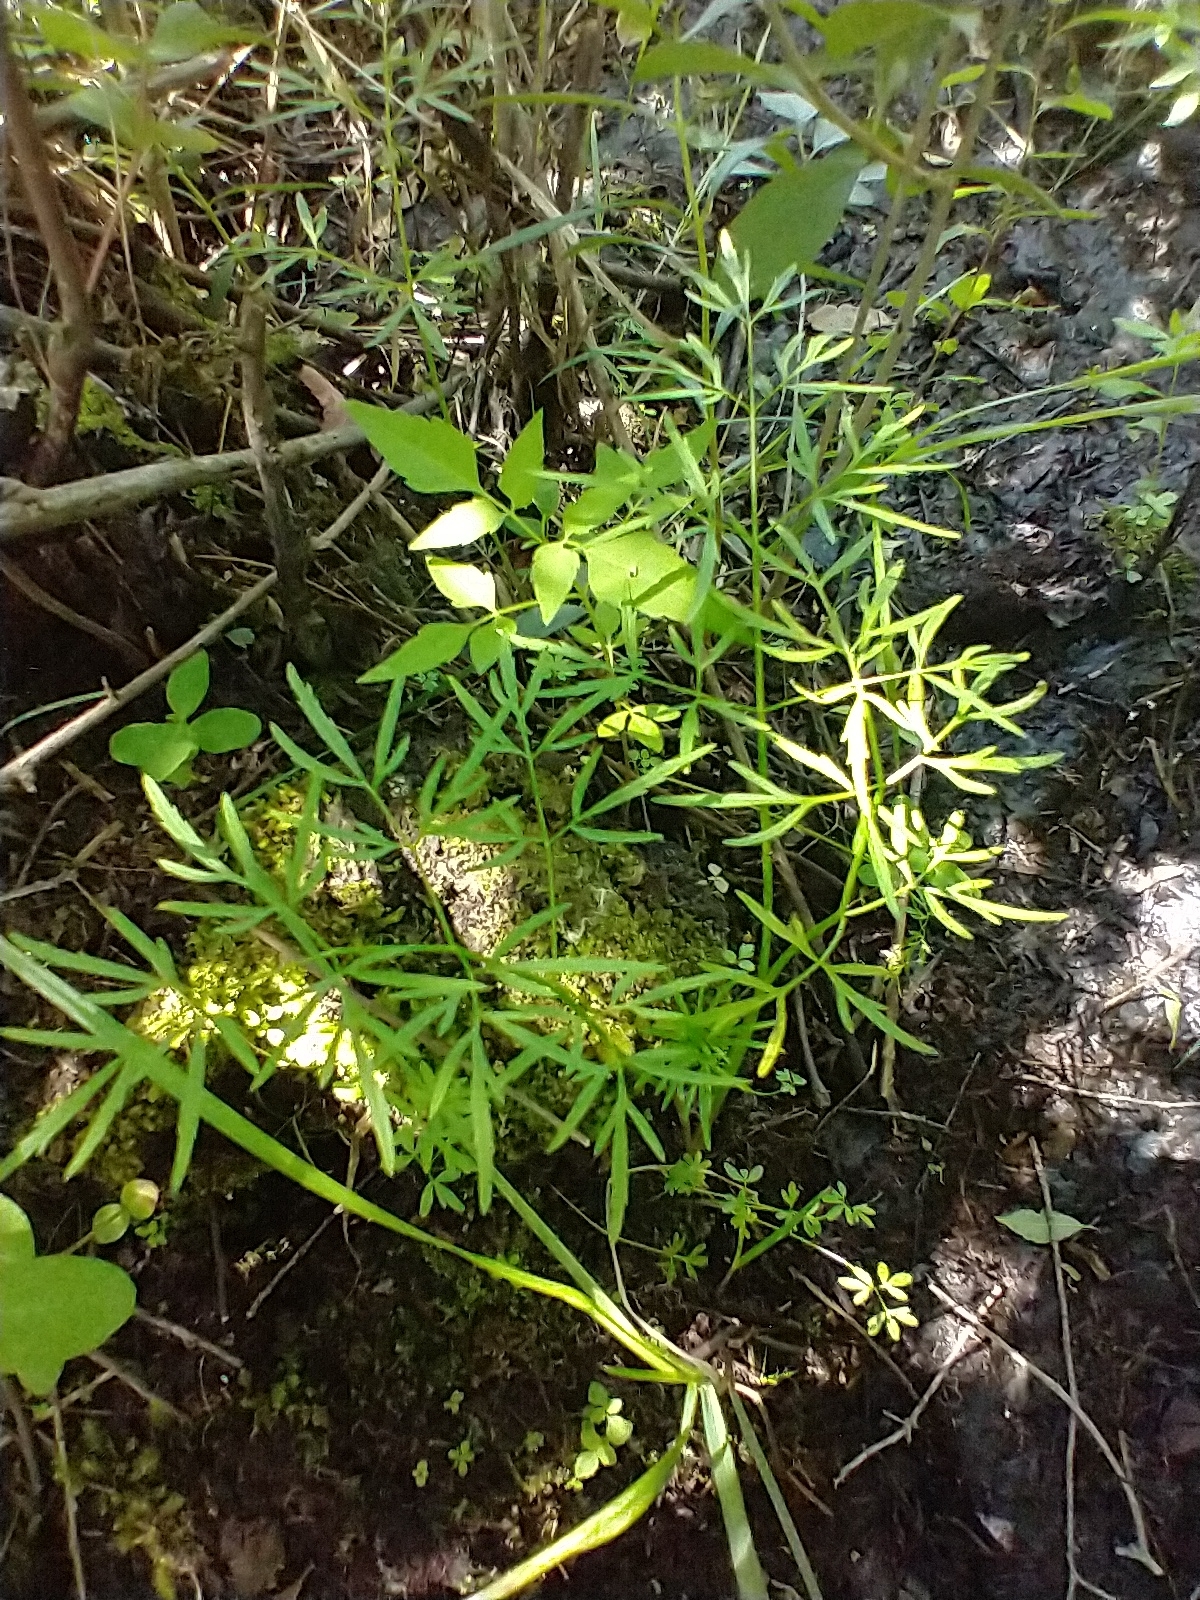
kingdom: Plantae
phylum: Tracheophyta
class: Magnoliopsida
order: Apiales
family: Apiaceae
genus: Cicuta
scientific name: Cicuta bulbifera
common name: Bulb-bearing water-hemlock
